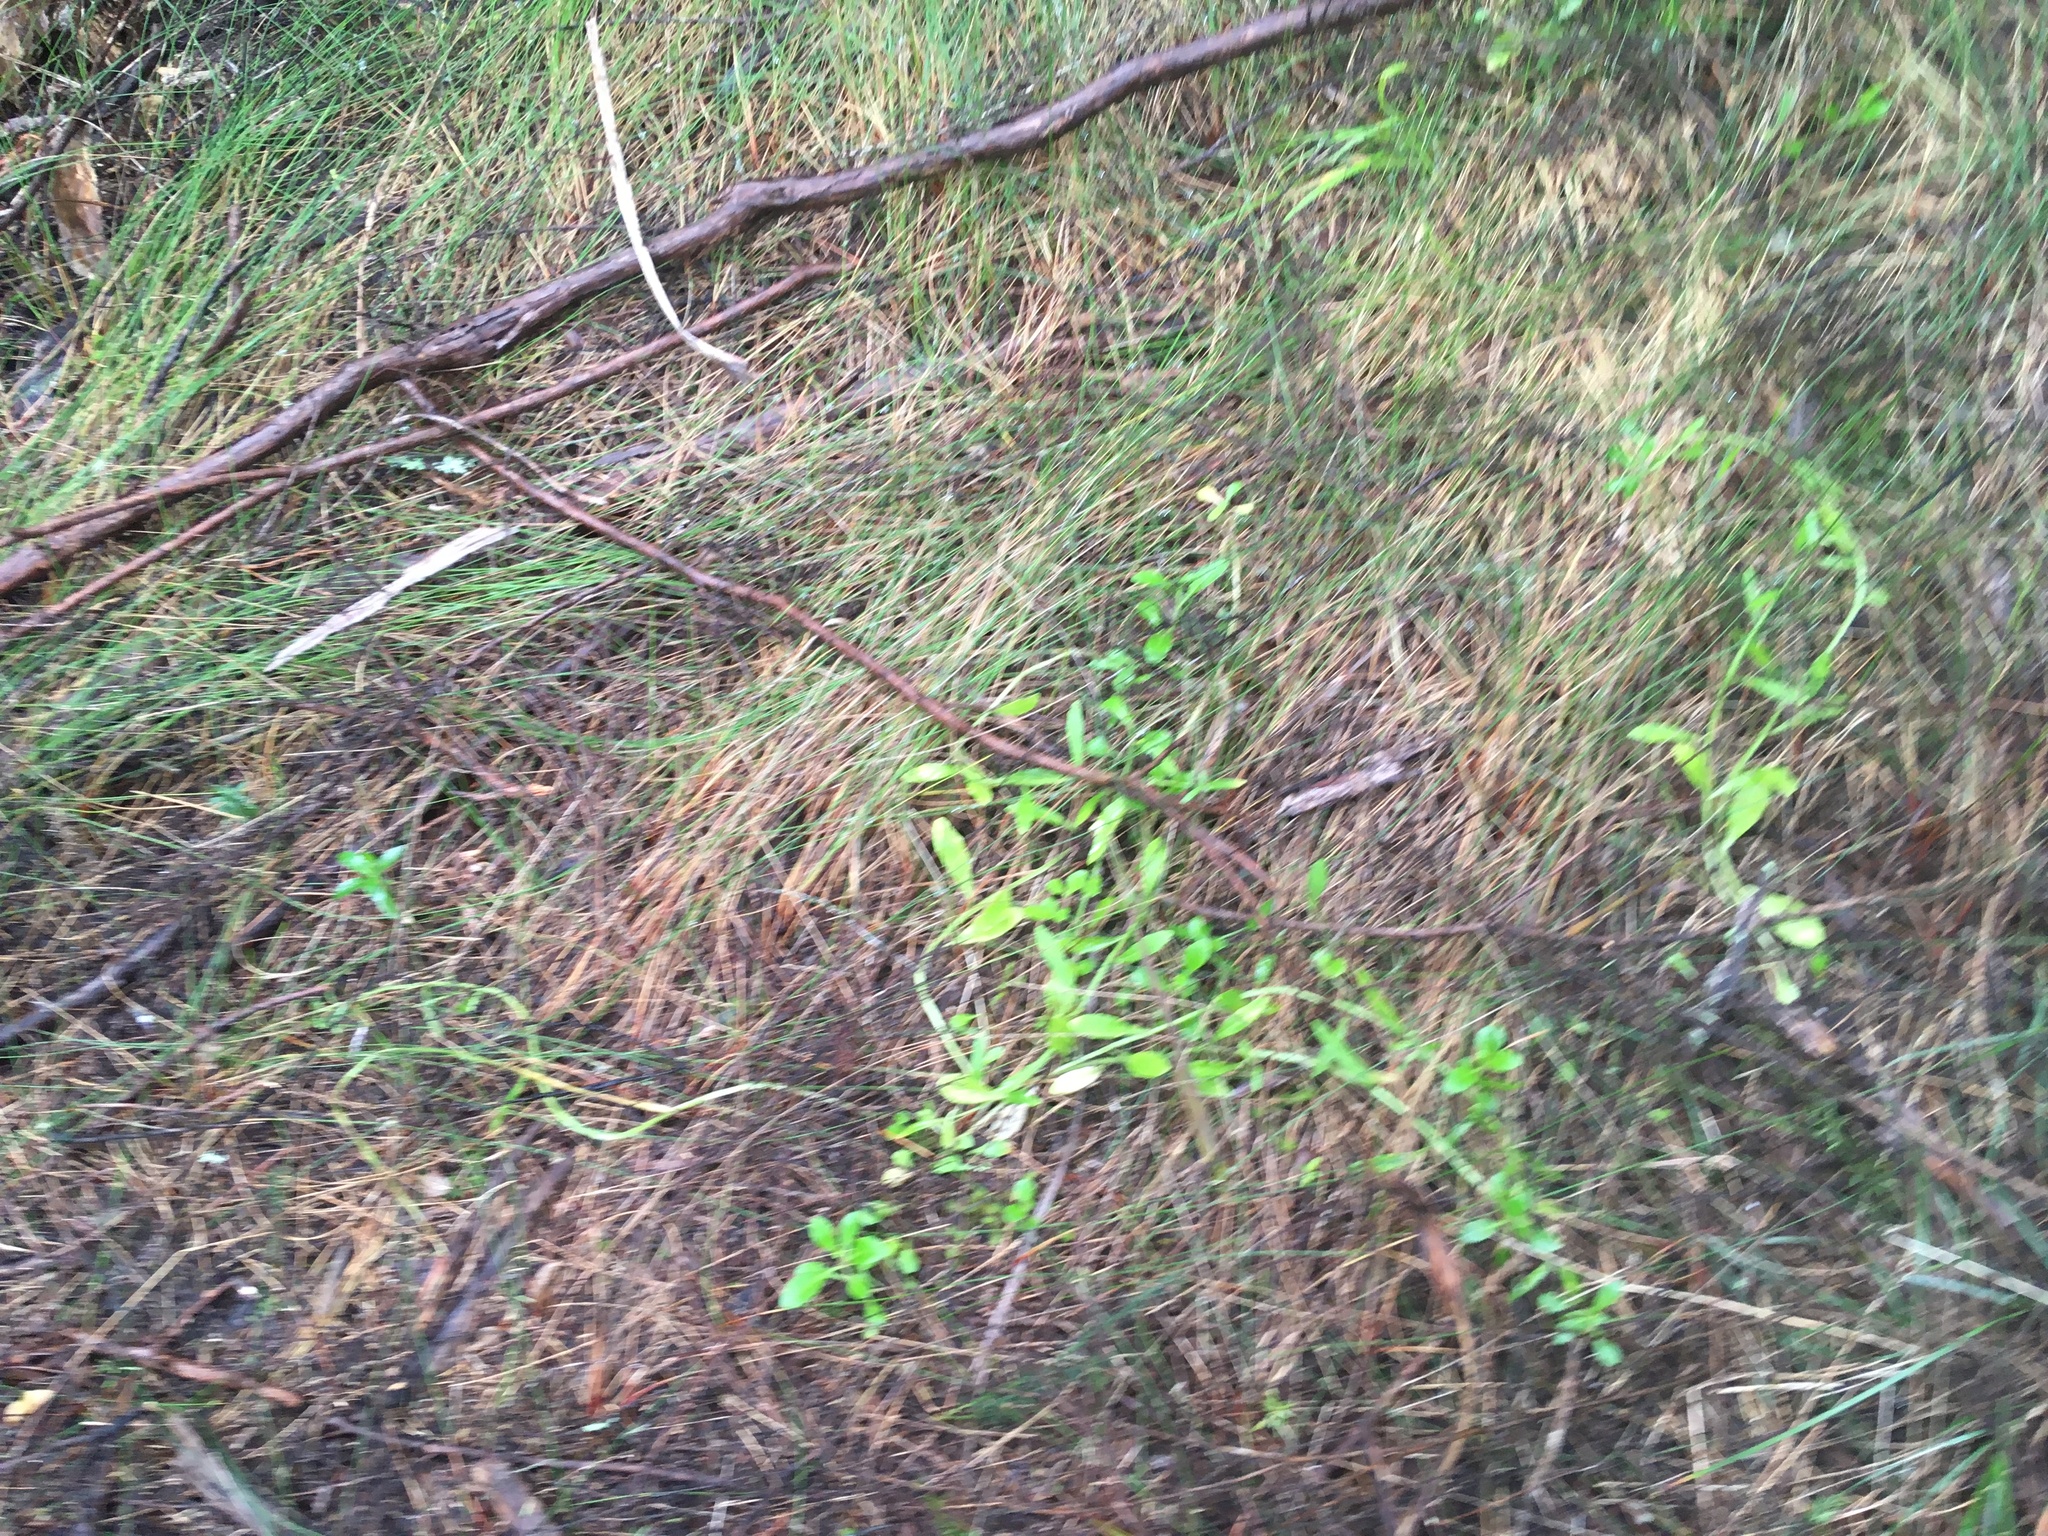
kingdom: Plantae
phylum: Tracheophyta
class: Magnoliopsida
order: Asterales
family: Campanulaceae
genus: Lobelia
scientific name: Lobelia anceps
